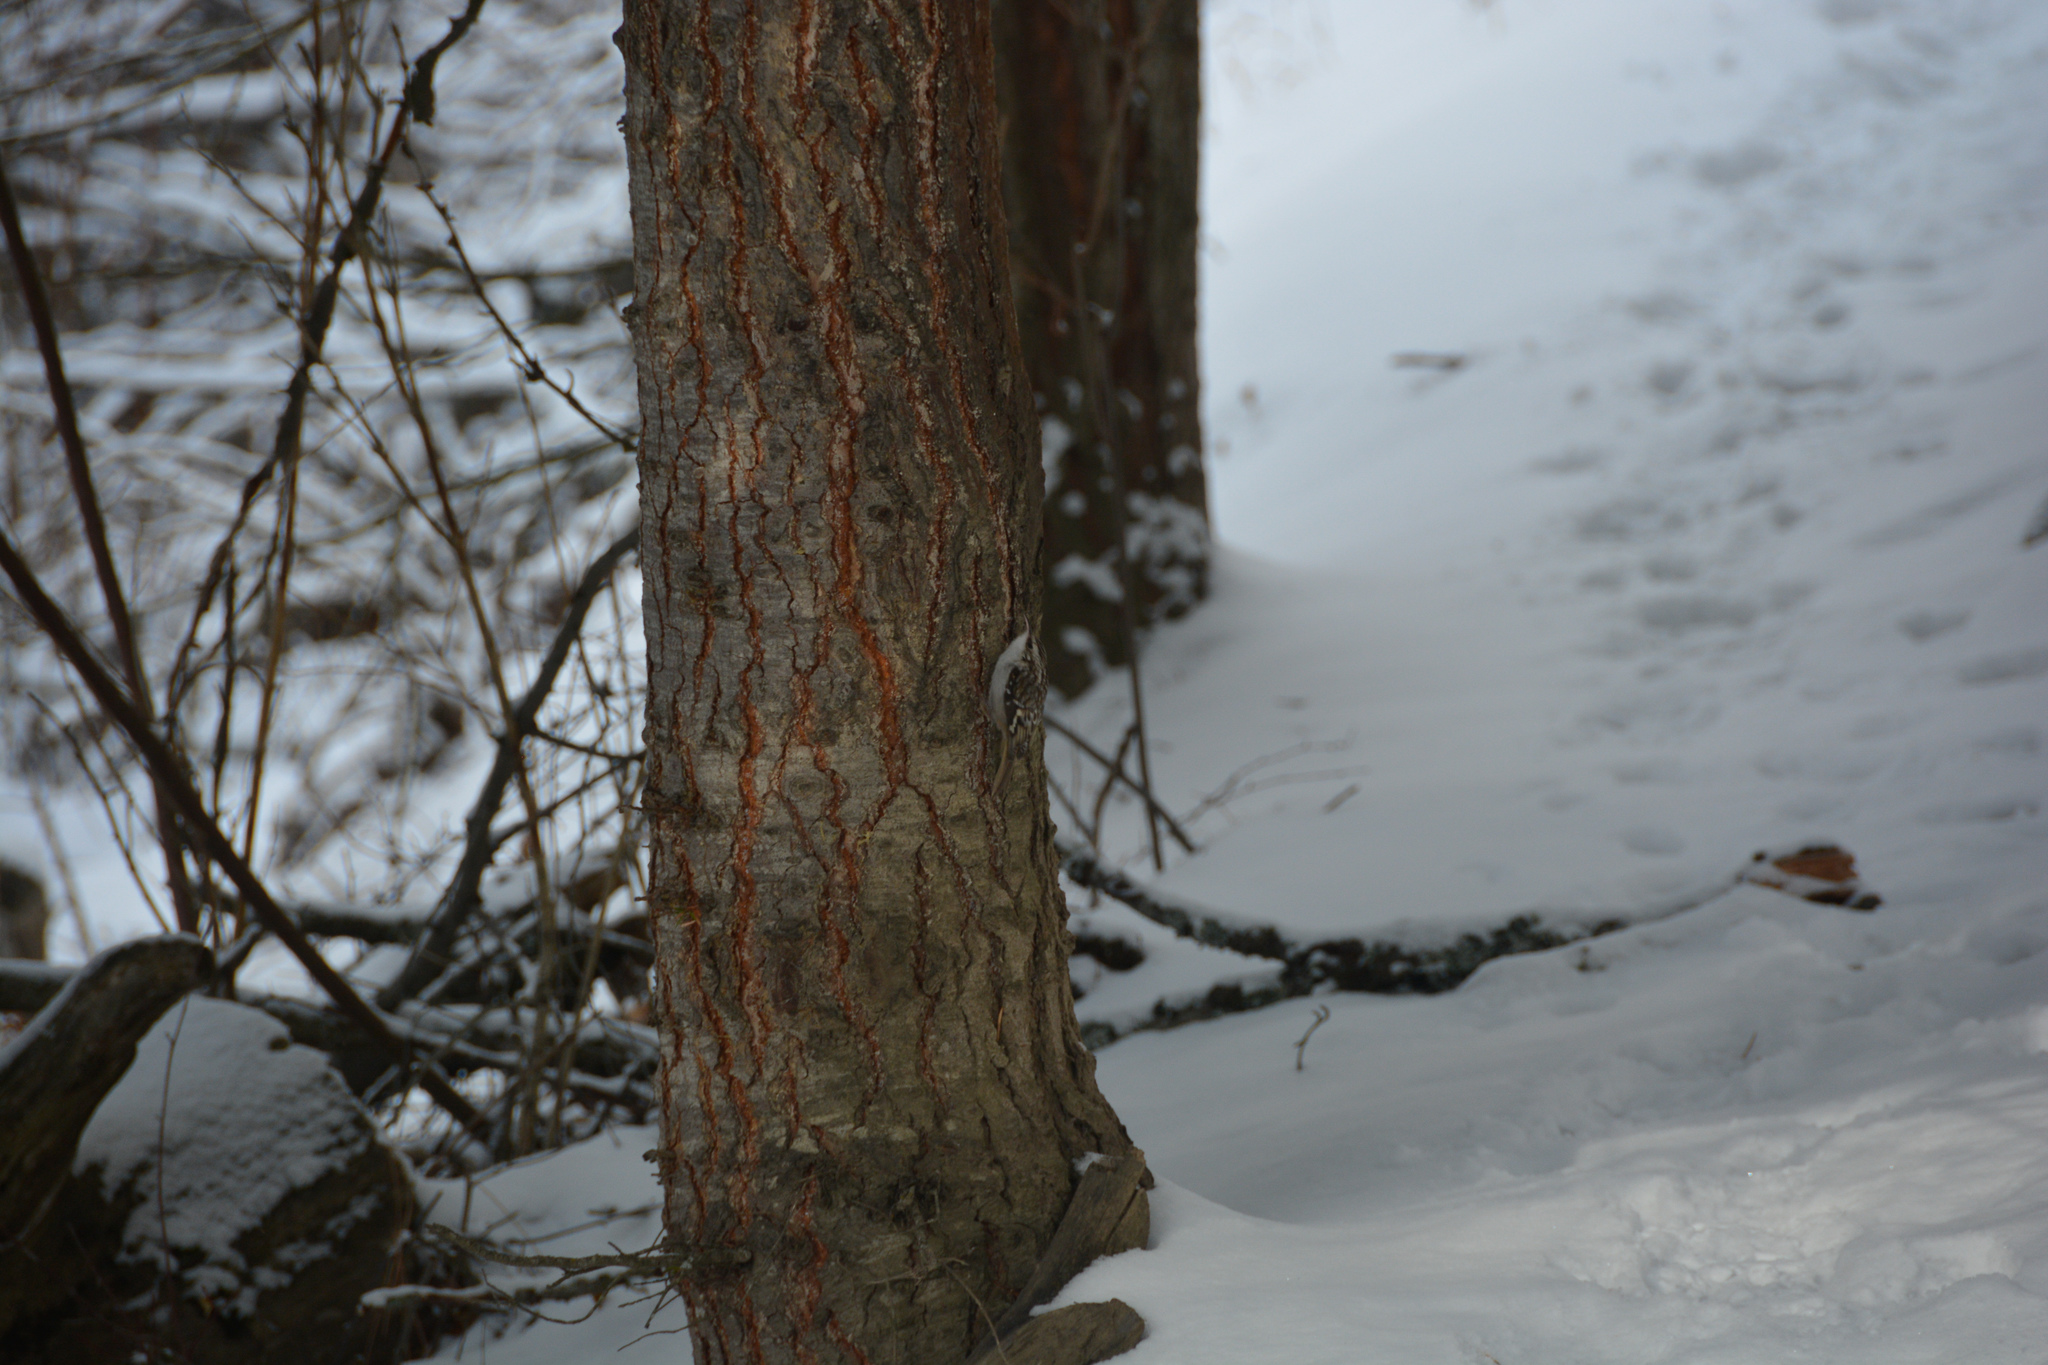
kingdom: Animalia
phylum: Chordata
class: Aves
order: Passeriformes
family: Certhiidae
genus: Certhia
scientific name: Certhia americana
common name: Brown creeper
